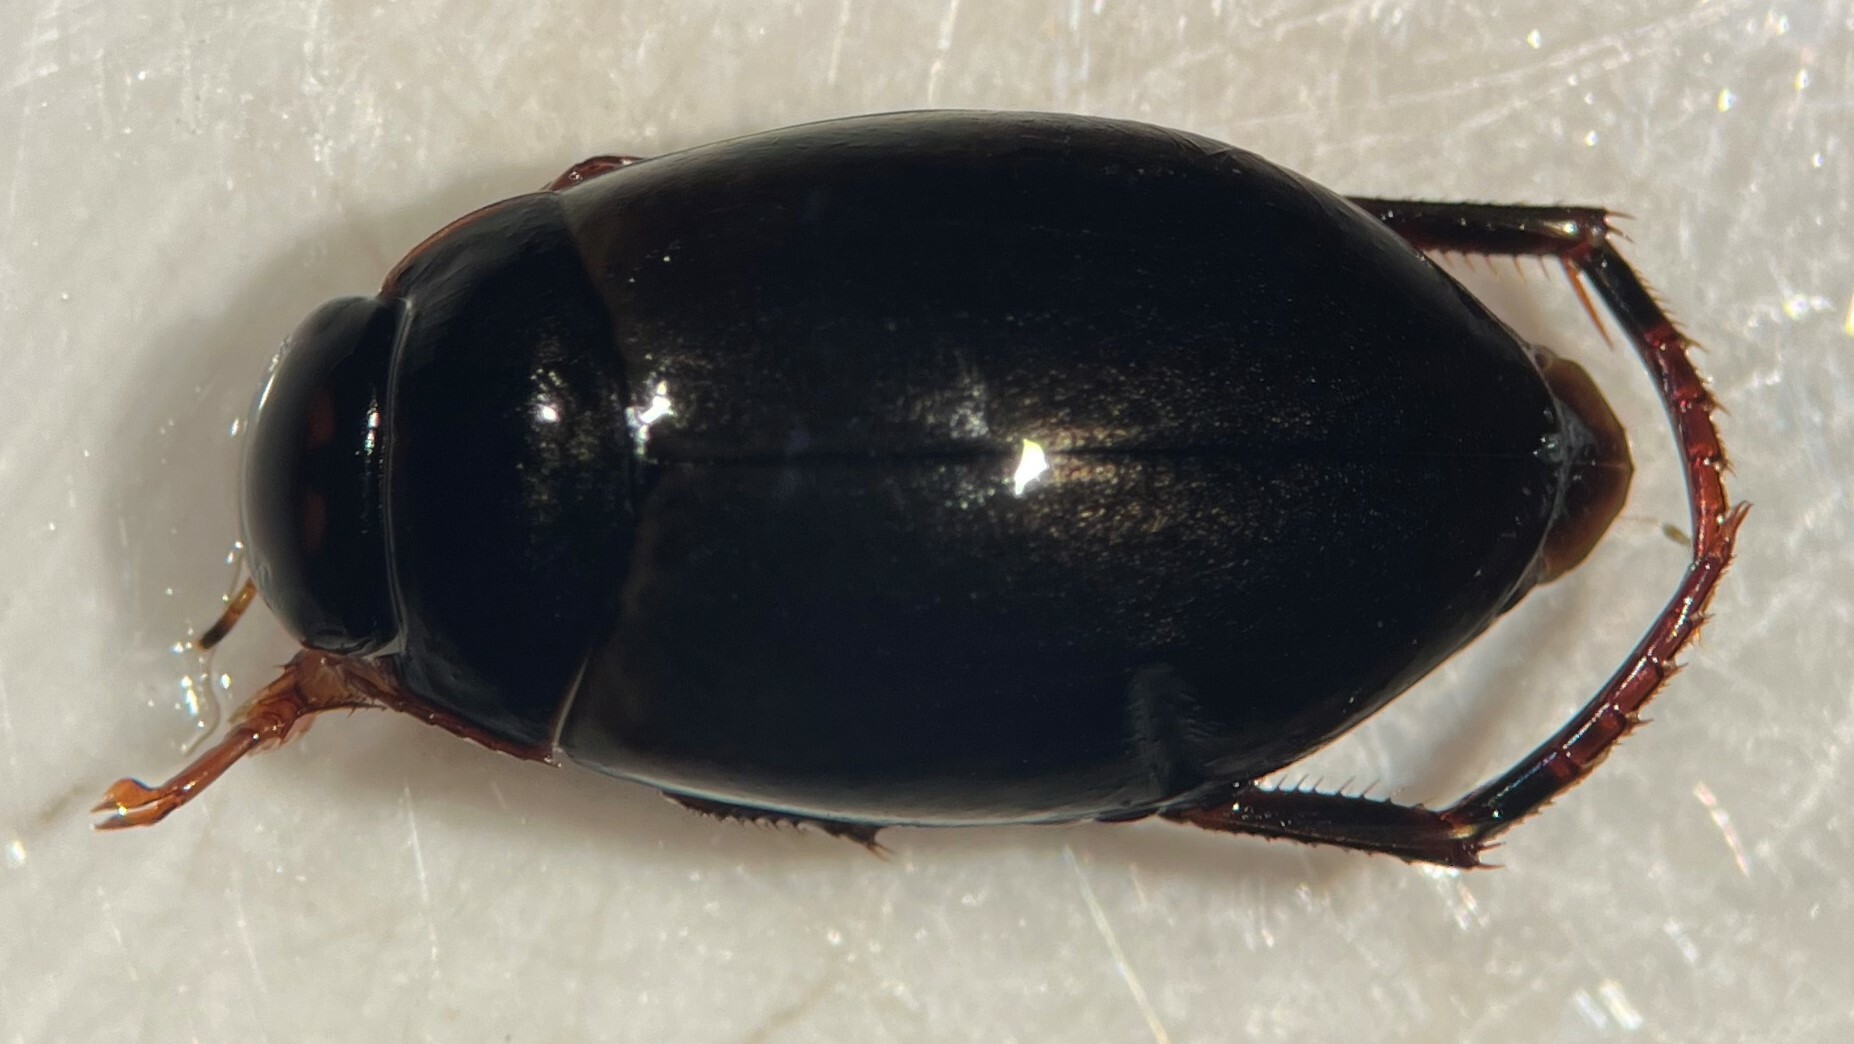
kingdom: Animalia
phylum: Arthropoda
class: Insecta
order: Coleoptera
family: Dytiscidae
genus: Agabus
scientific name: Agabus erytropterus
